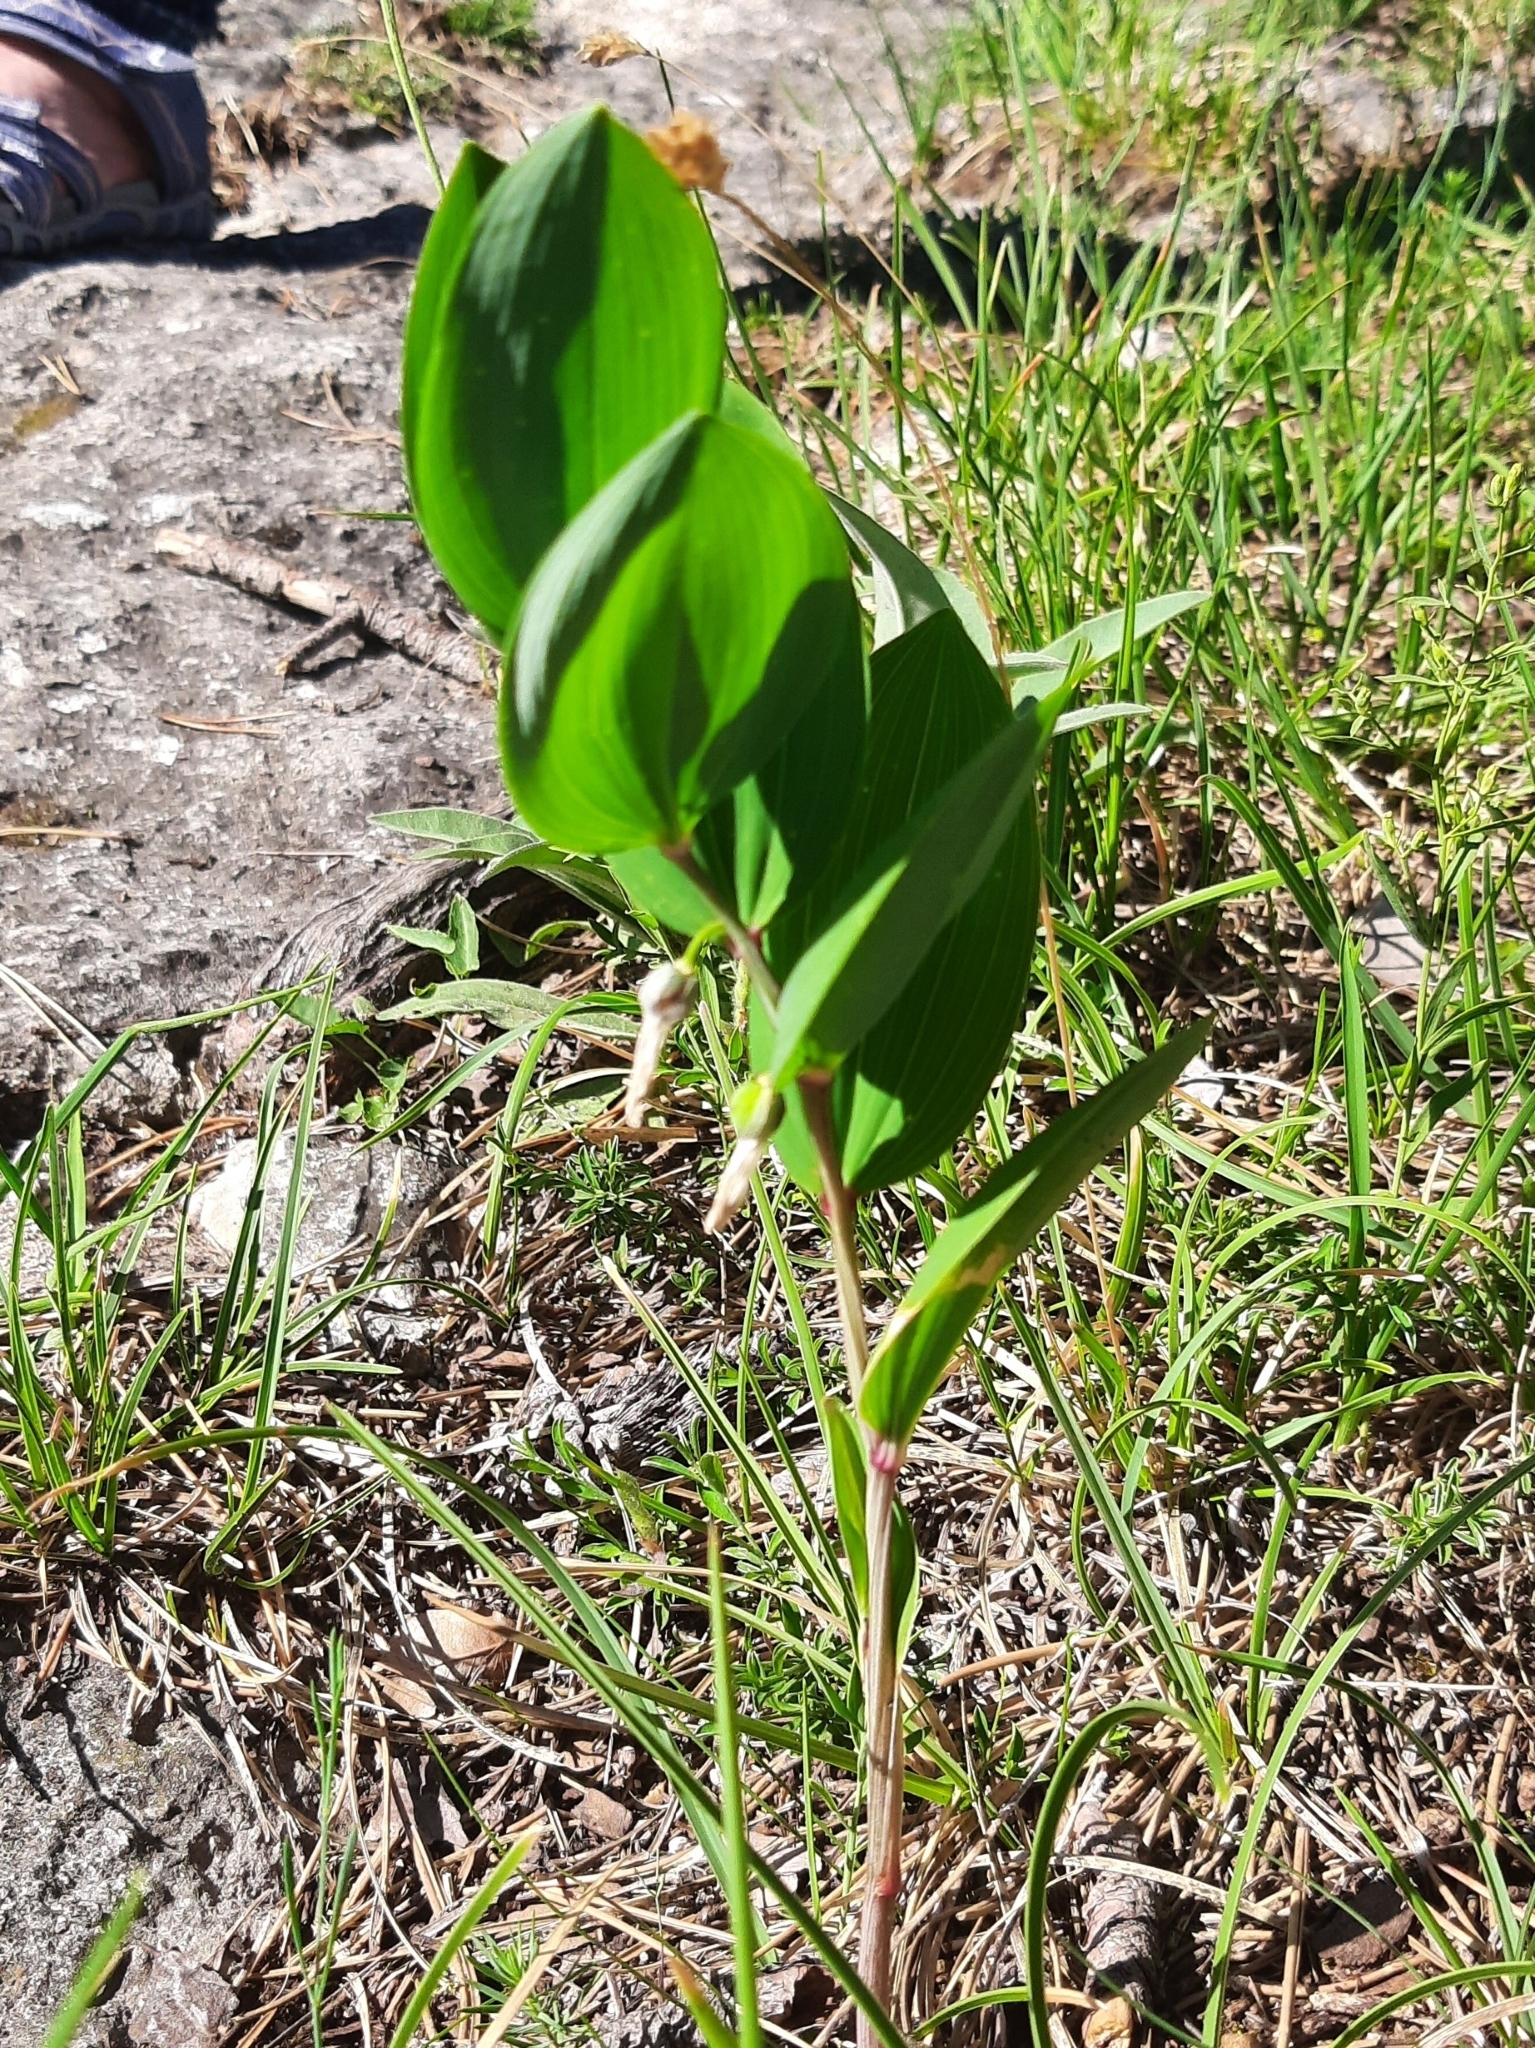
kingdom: Plantae
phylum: Tracheophyta
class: Liliopsida
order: Asparagales
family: Asparagaceae
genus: Polygonatum
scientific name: Polygonatum odoratum
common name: Angular solomon's-seal
